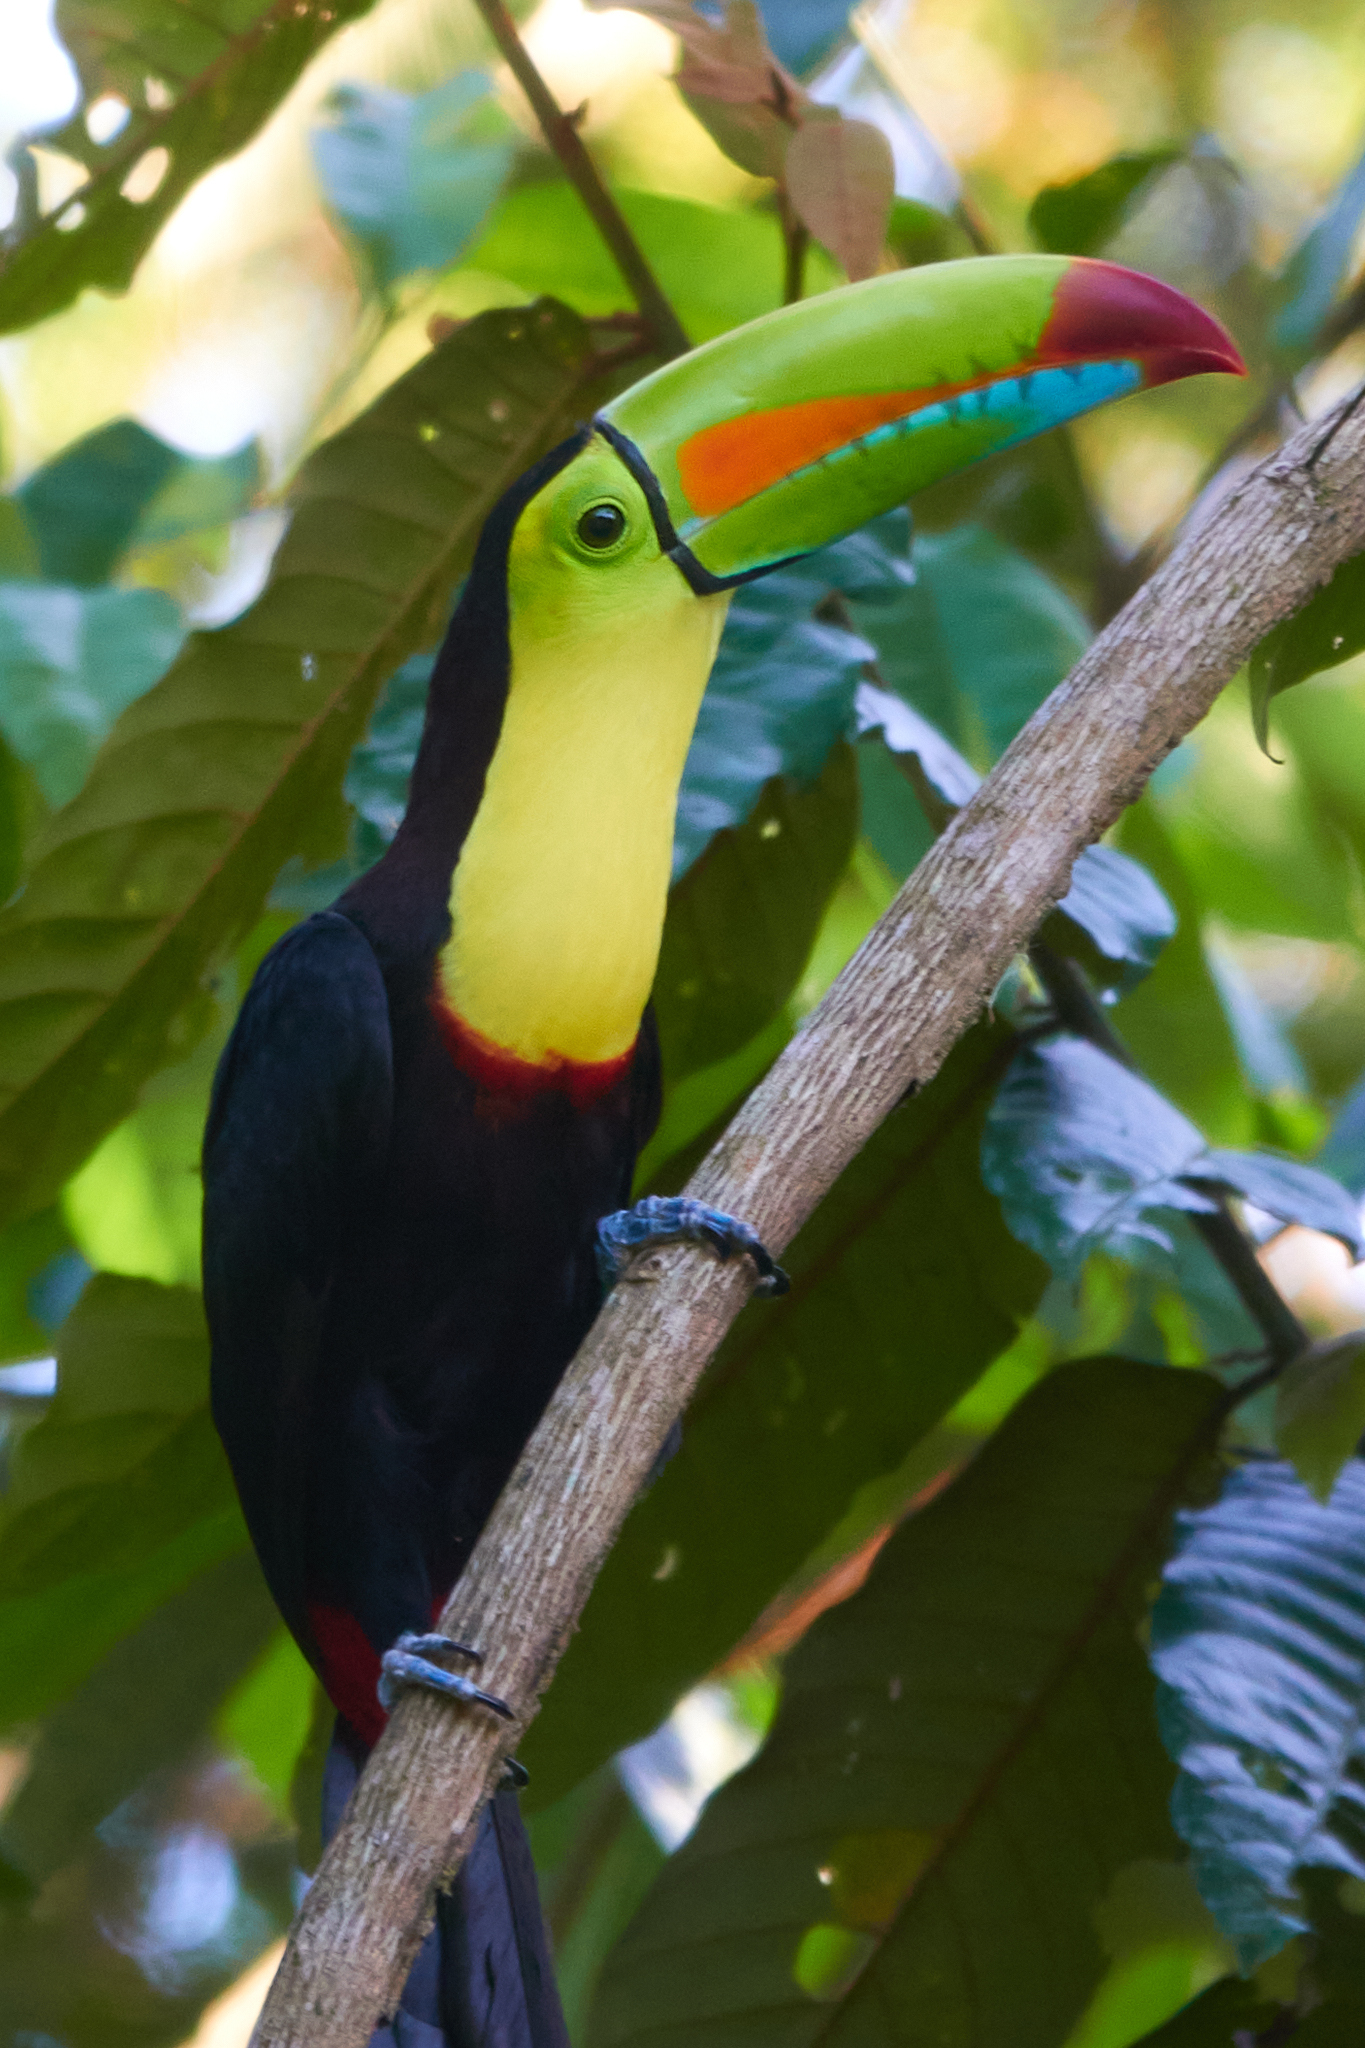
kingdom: Animalia
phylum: Chordata
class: Aves
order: Piciformes
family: Ramphastidae
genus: Ramphastos
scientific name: Ramphastos sulfuratus
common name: Keel-billed toucan
